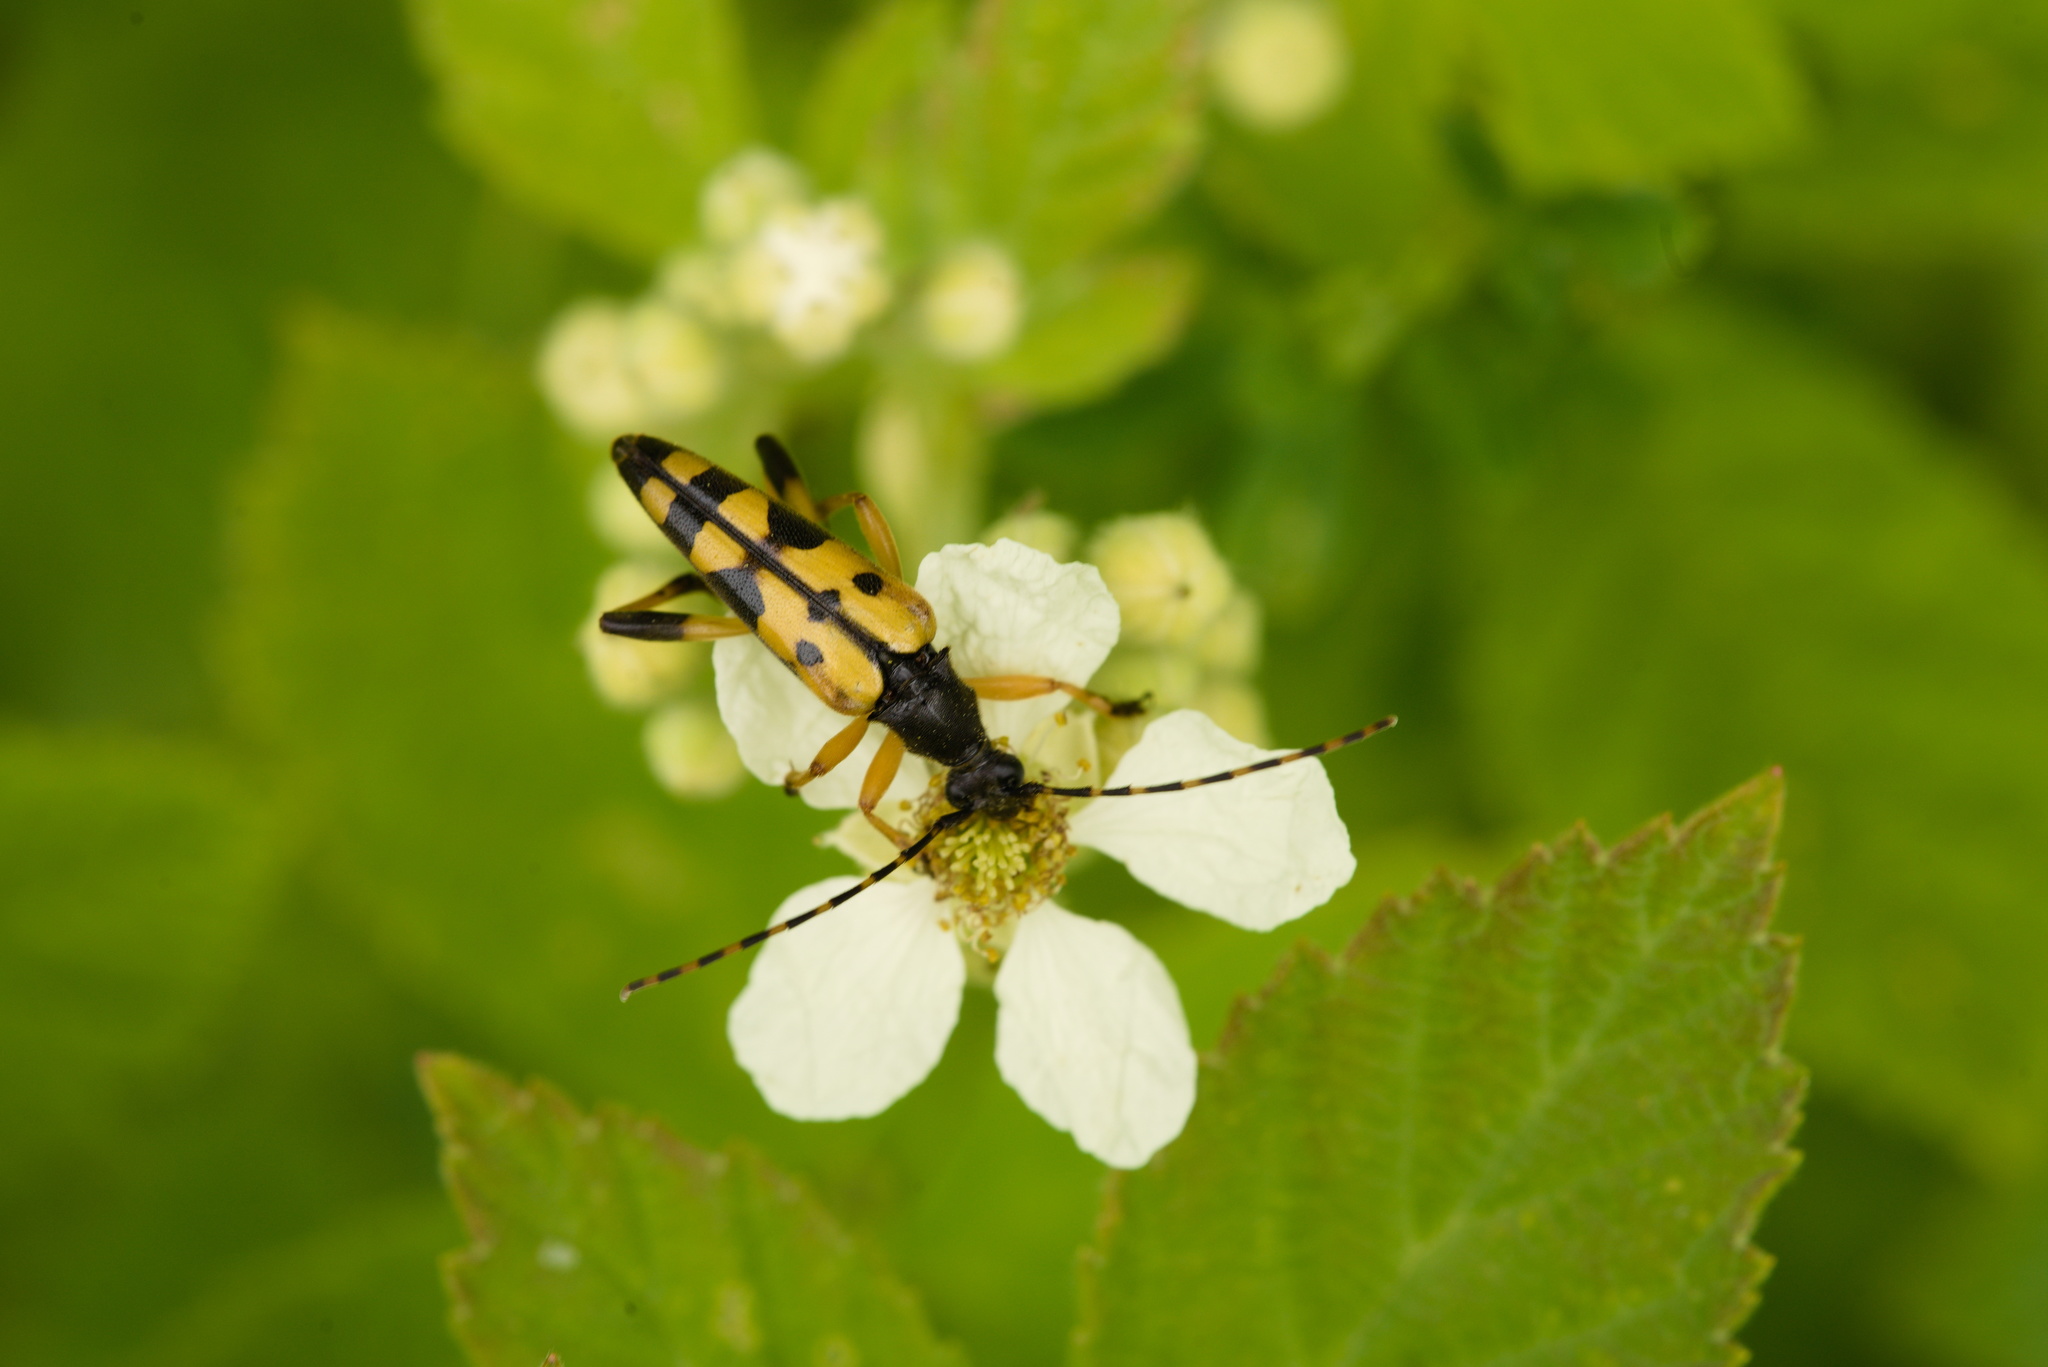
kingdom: Animalia
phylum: Arthropoda
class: Insecta
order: Coleoptera
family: Cerambycidae
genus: Rutpela
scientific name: Rutpela maculata
